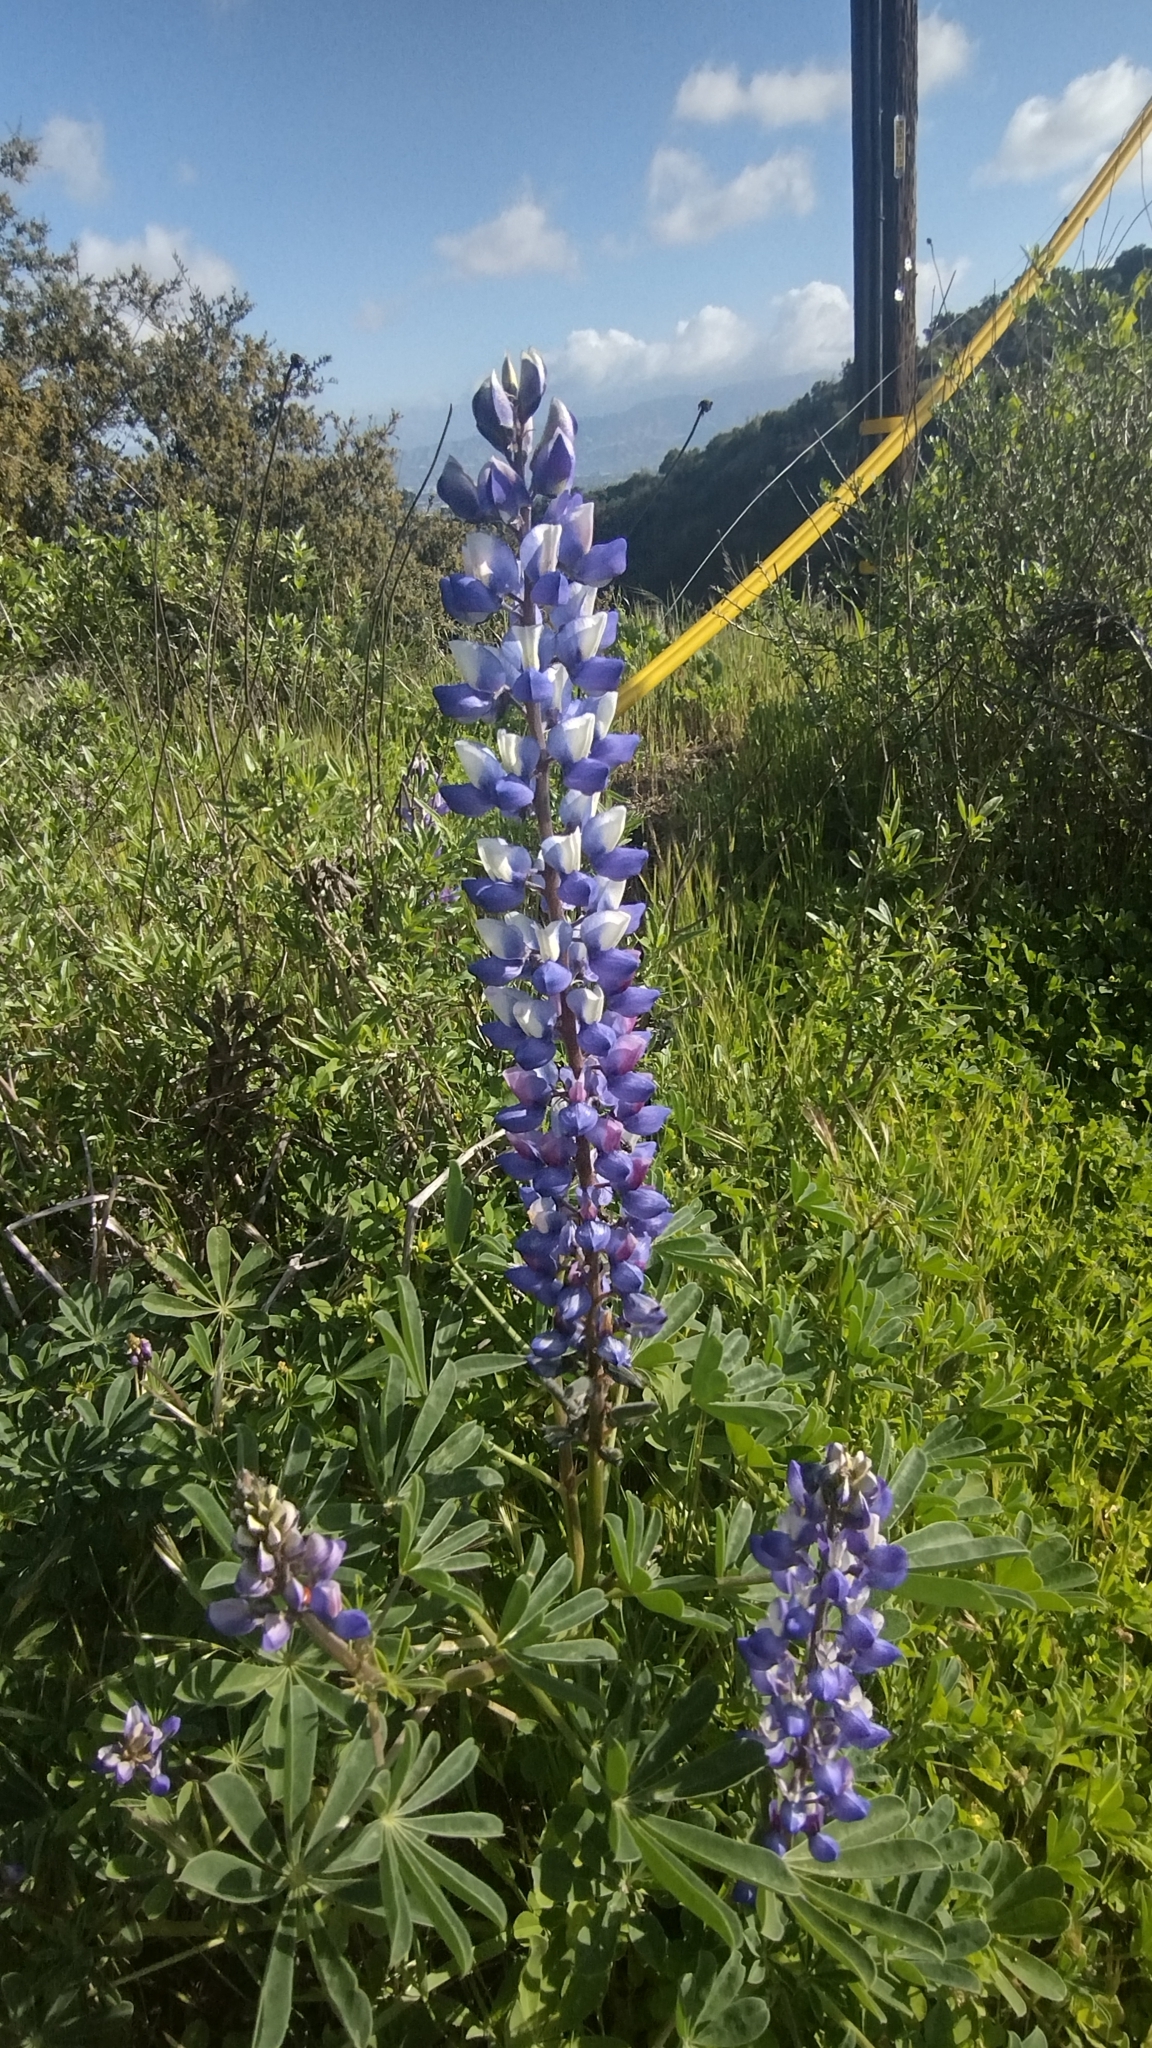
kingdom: Plantae
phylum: Tracheophyta
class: Magnoliopsida
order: Fabales
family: Fabaceae
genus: Lupinus
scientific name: Lupinus succulentus
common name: Arroyo lupine
